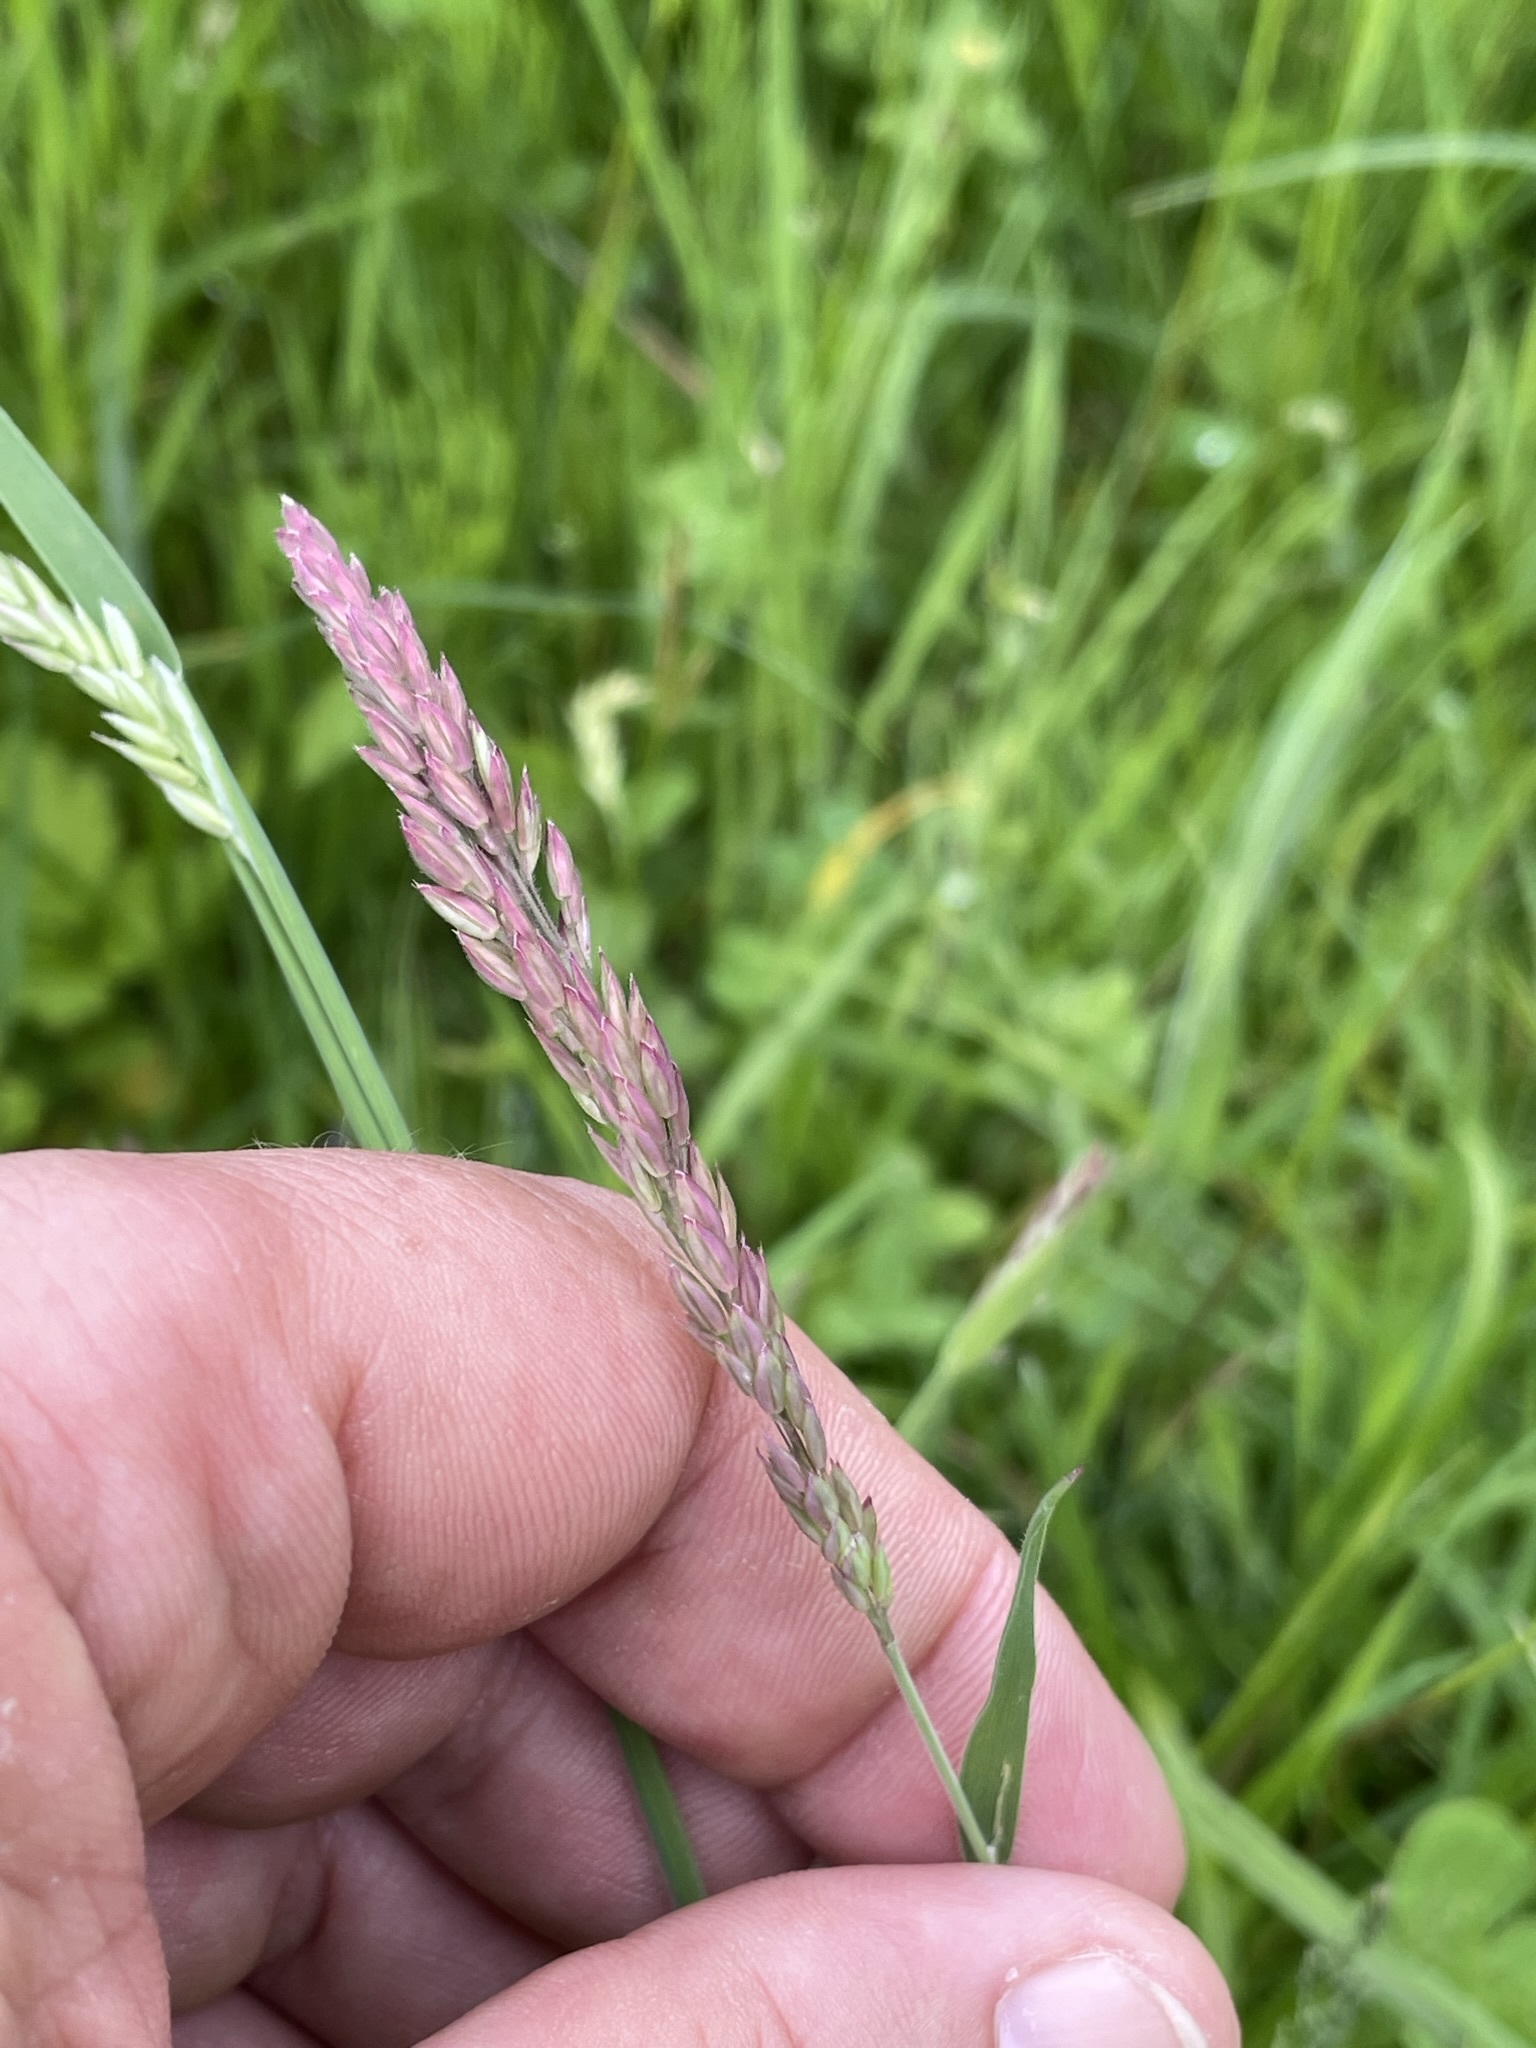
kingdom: Plantae
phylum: Tracheophyta
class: Liliopsida
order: Poales
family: Poaceae
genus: Holcus
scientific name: Holcus lanatus
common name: Yorkshire-fog
